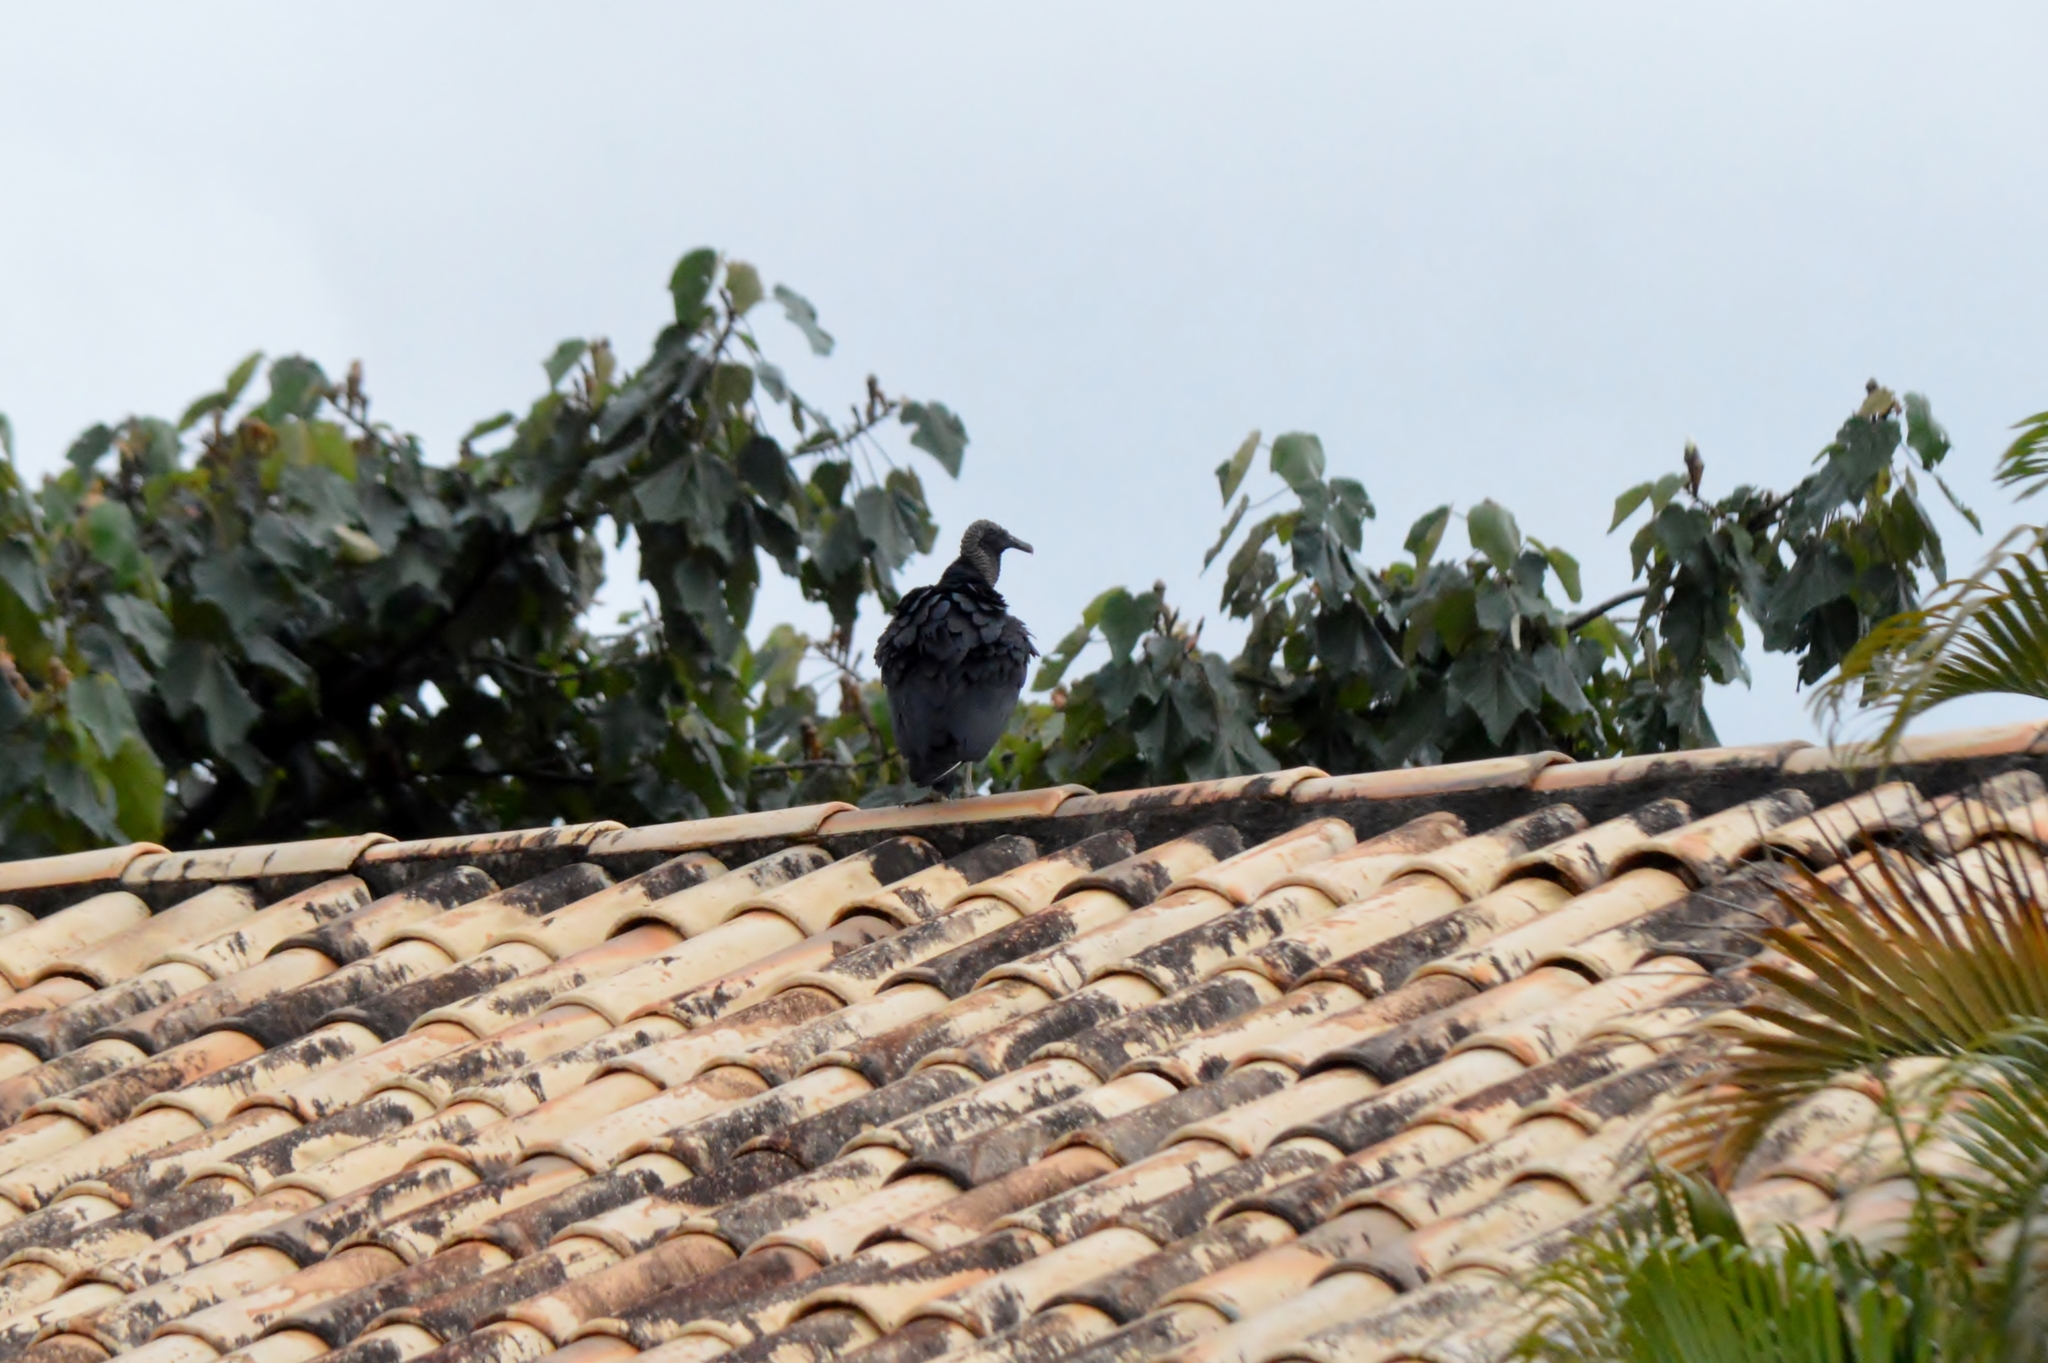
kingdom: Animalia
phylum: Chordata
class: Aves
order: Accipitriformes
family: Cathartidae
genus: Coragyps
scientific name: Coragyps atratus
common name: Black vulture
